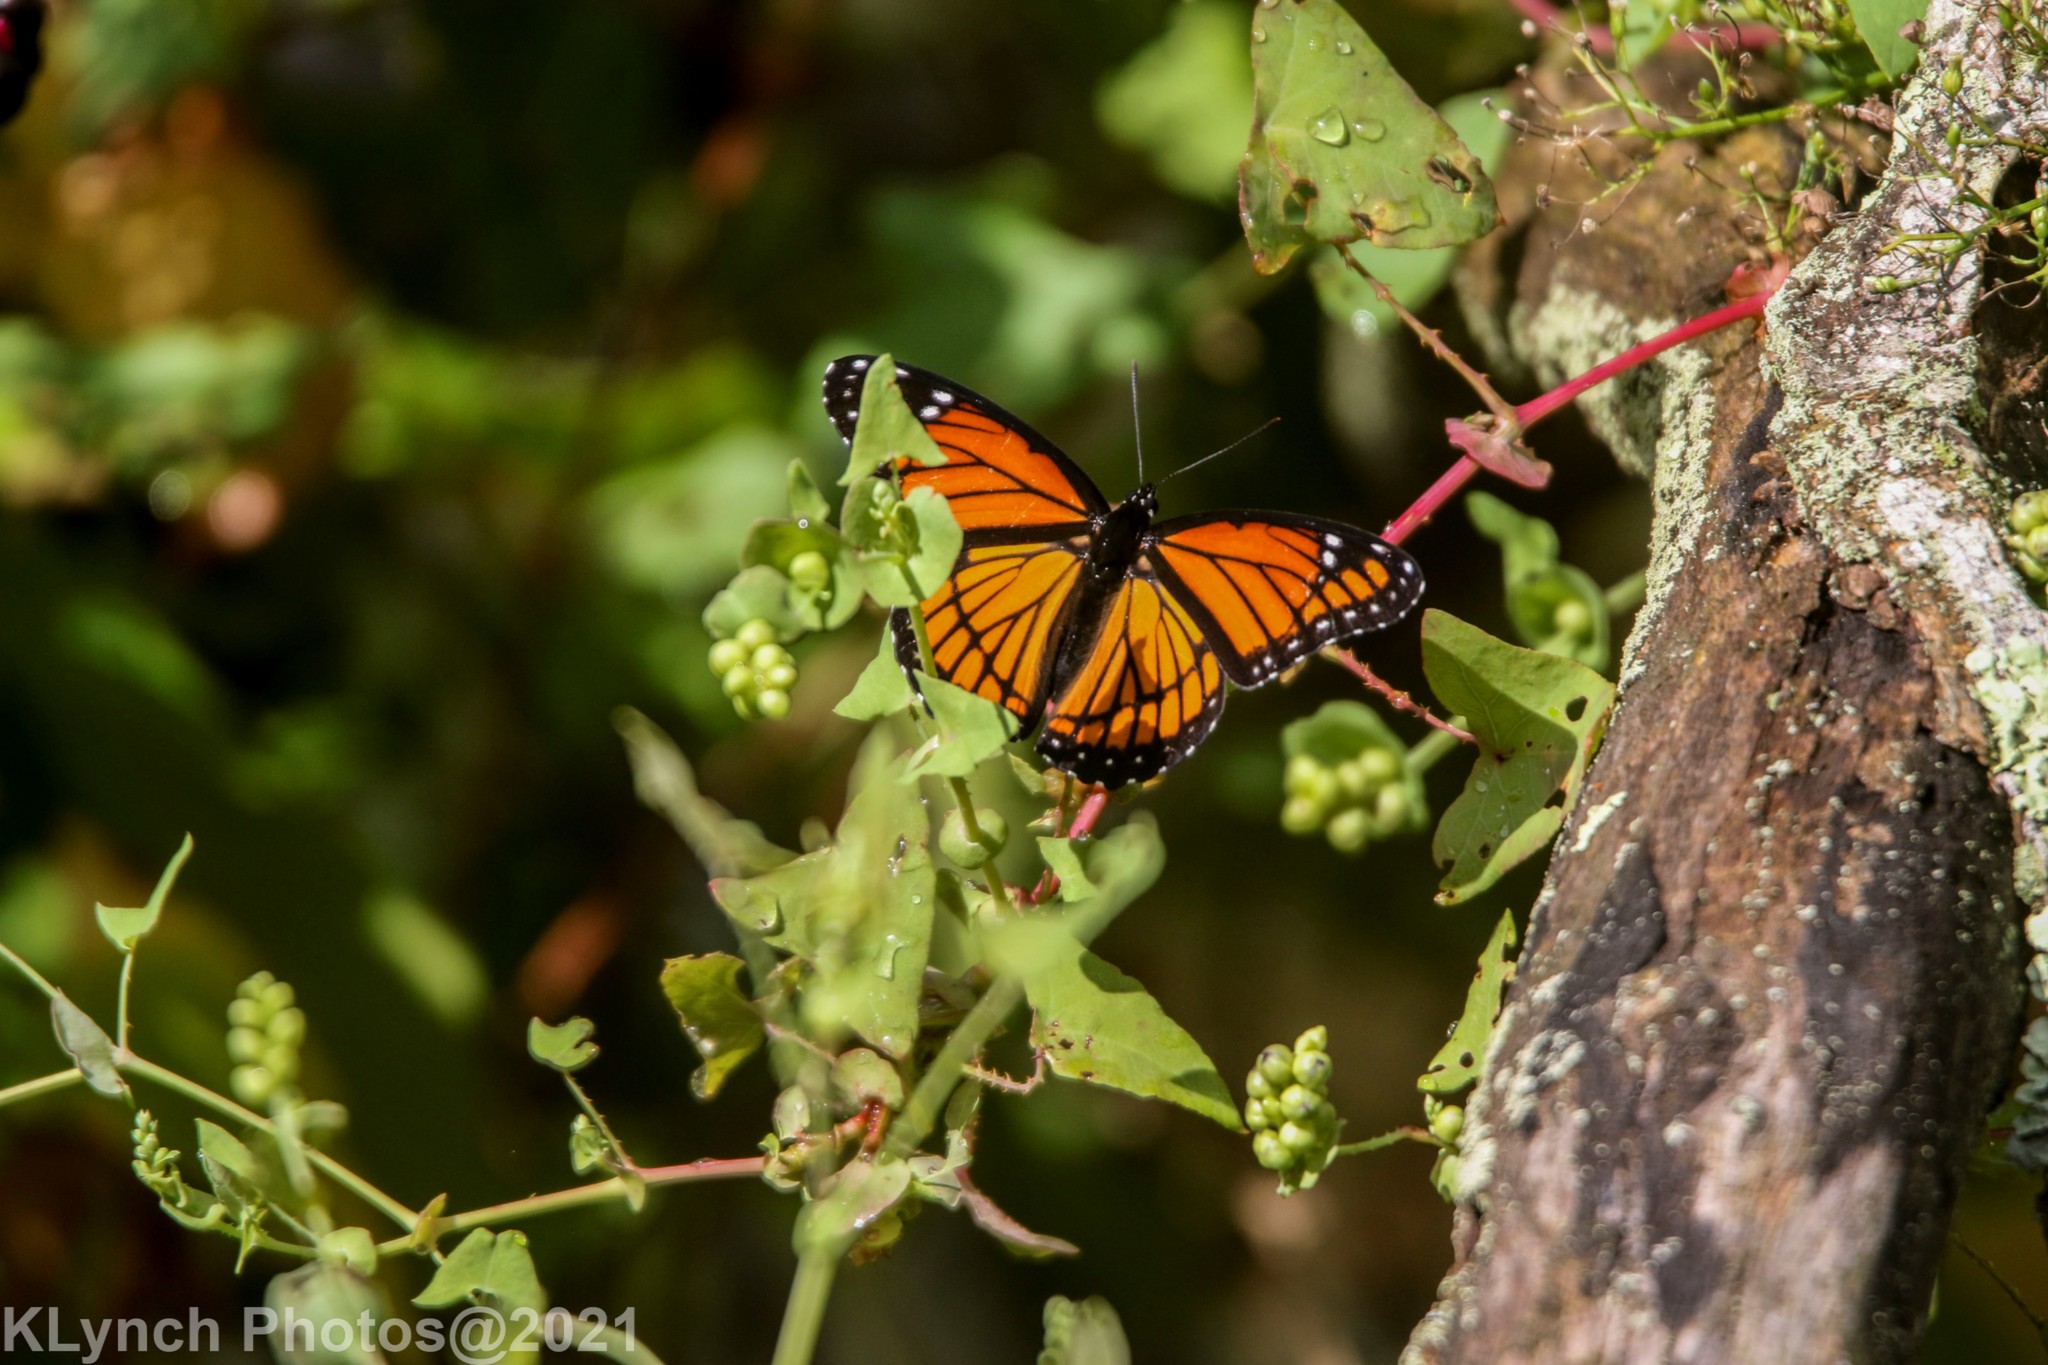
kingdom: Animalia
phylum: Arthropoda
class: Insecta
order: Lepidoptera
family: Nymphalidae
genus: Limenitis
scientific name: Limenitis archippus
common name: Viceroy
